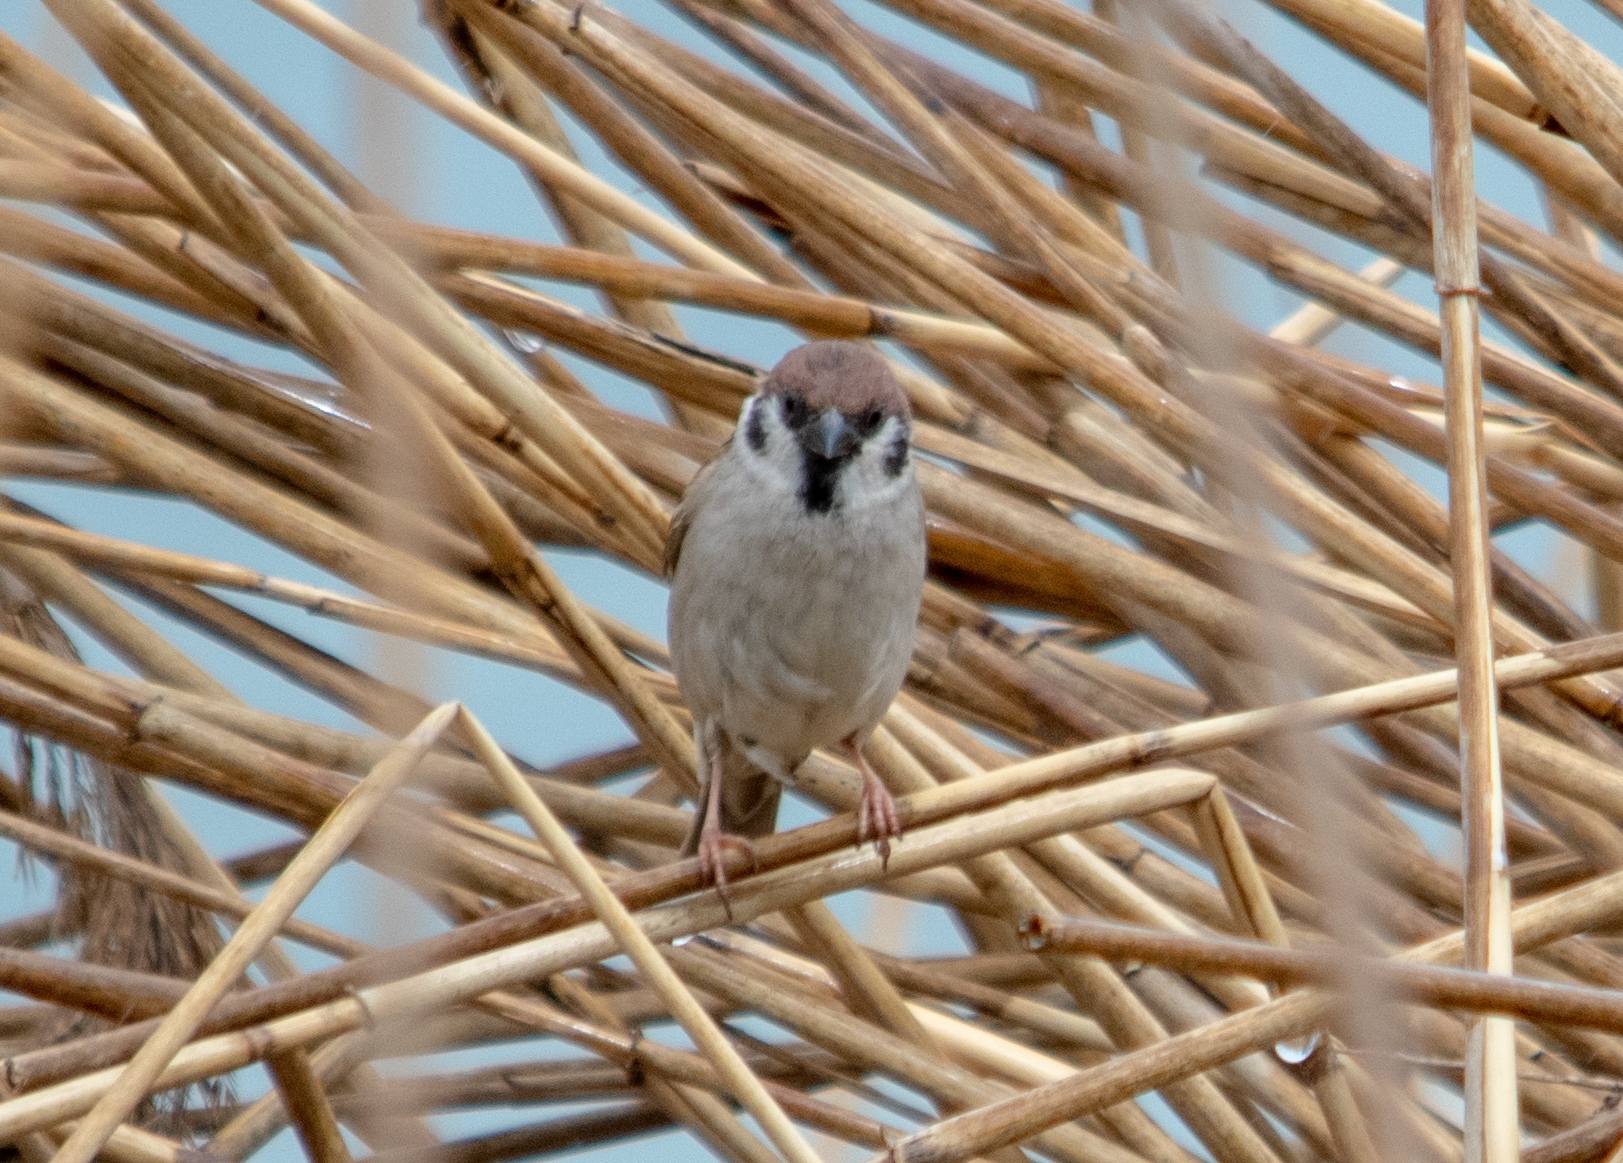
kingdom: Animalia
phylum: Chordata
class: Aves
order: Passeriformes
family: Passeridae
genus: Passer
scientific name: Passer montanus
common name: Eurasian tree sparrow
